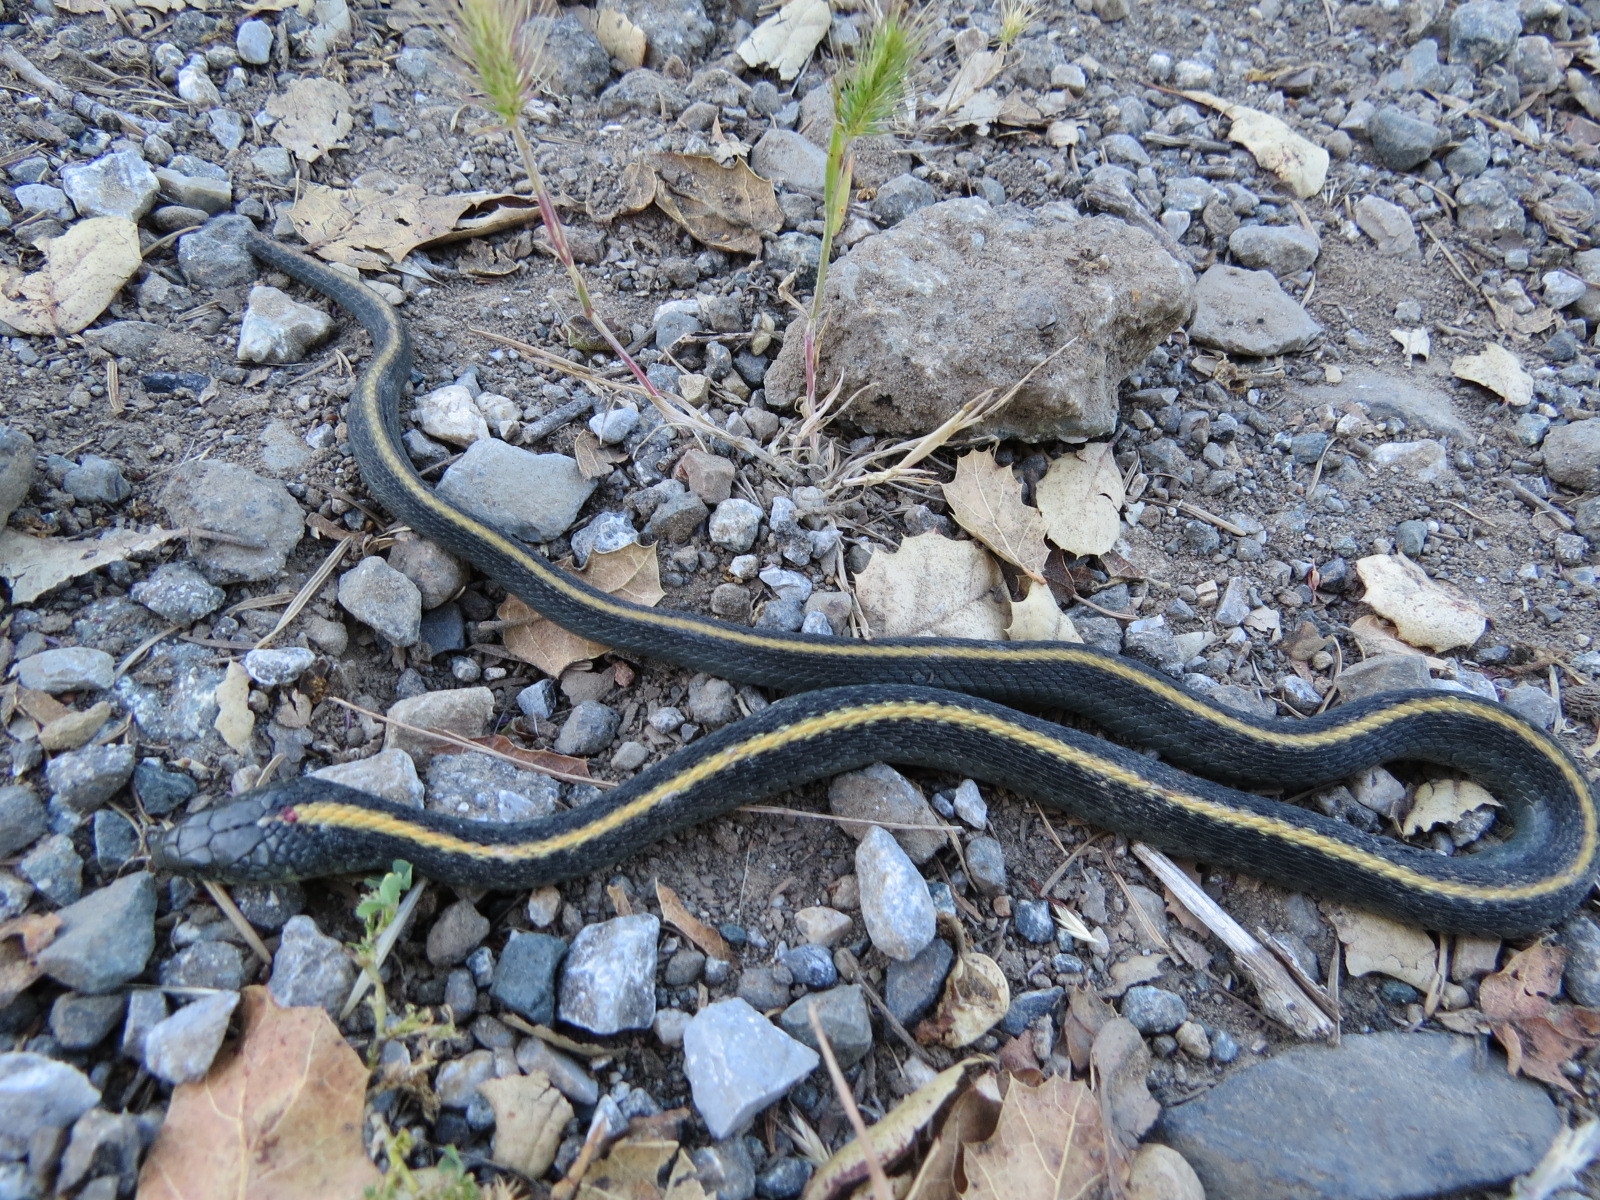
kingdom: Animalia
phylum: Chordata
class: Squamata
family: Colubridae
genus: Thamnophis
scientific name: Thamnophis atratus
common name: Pacific coast aquatic garter snake
